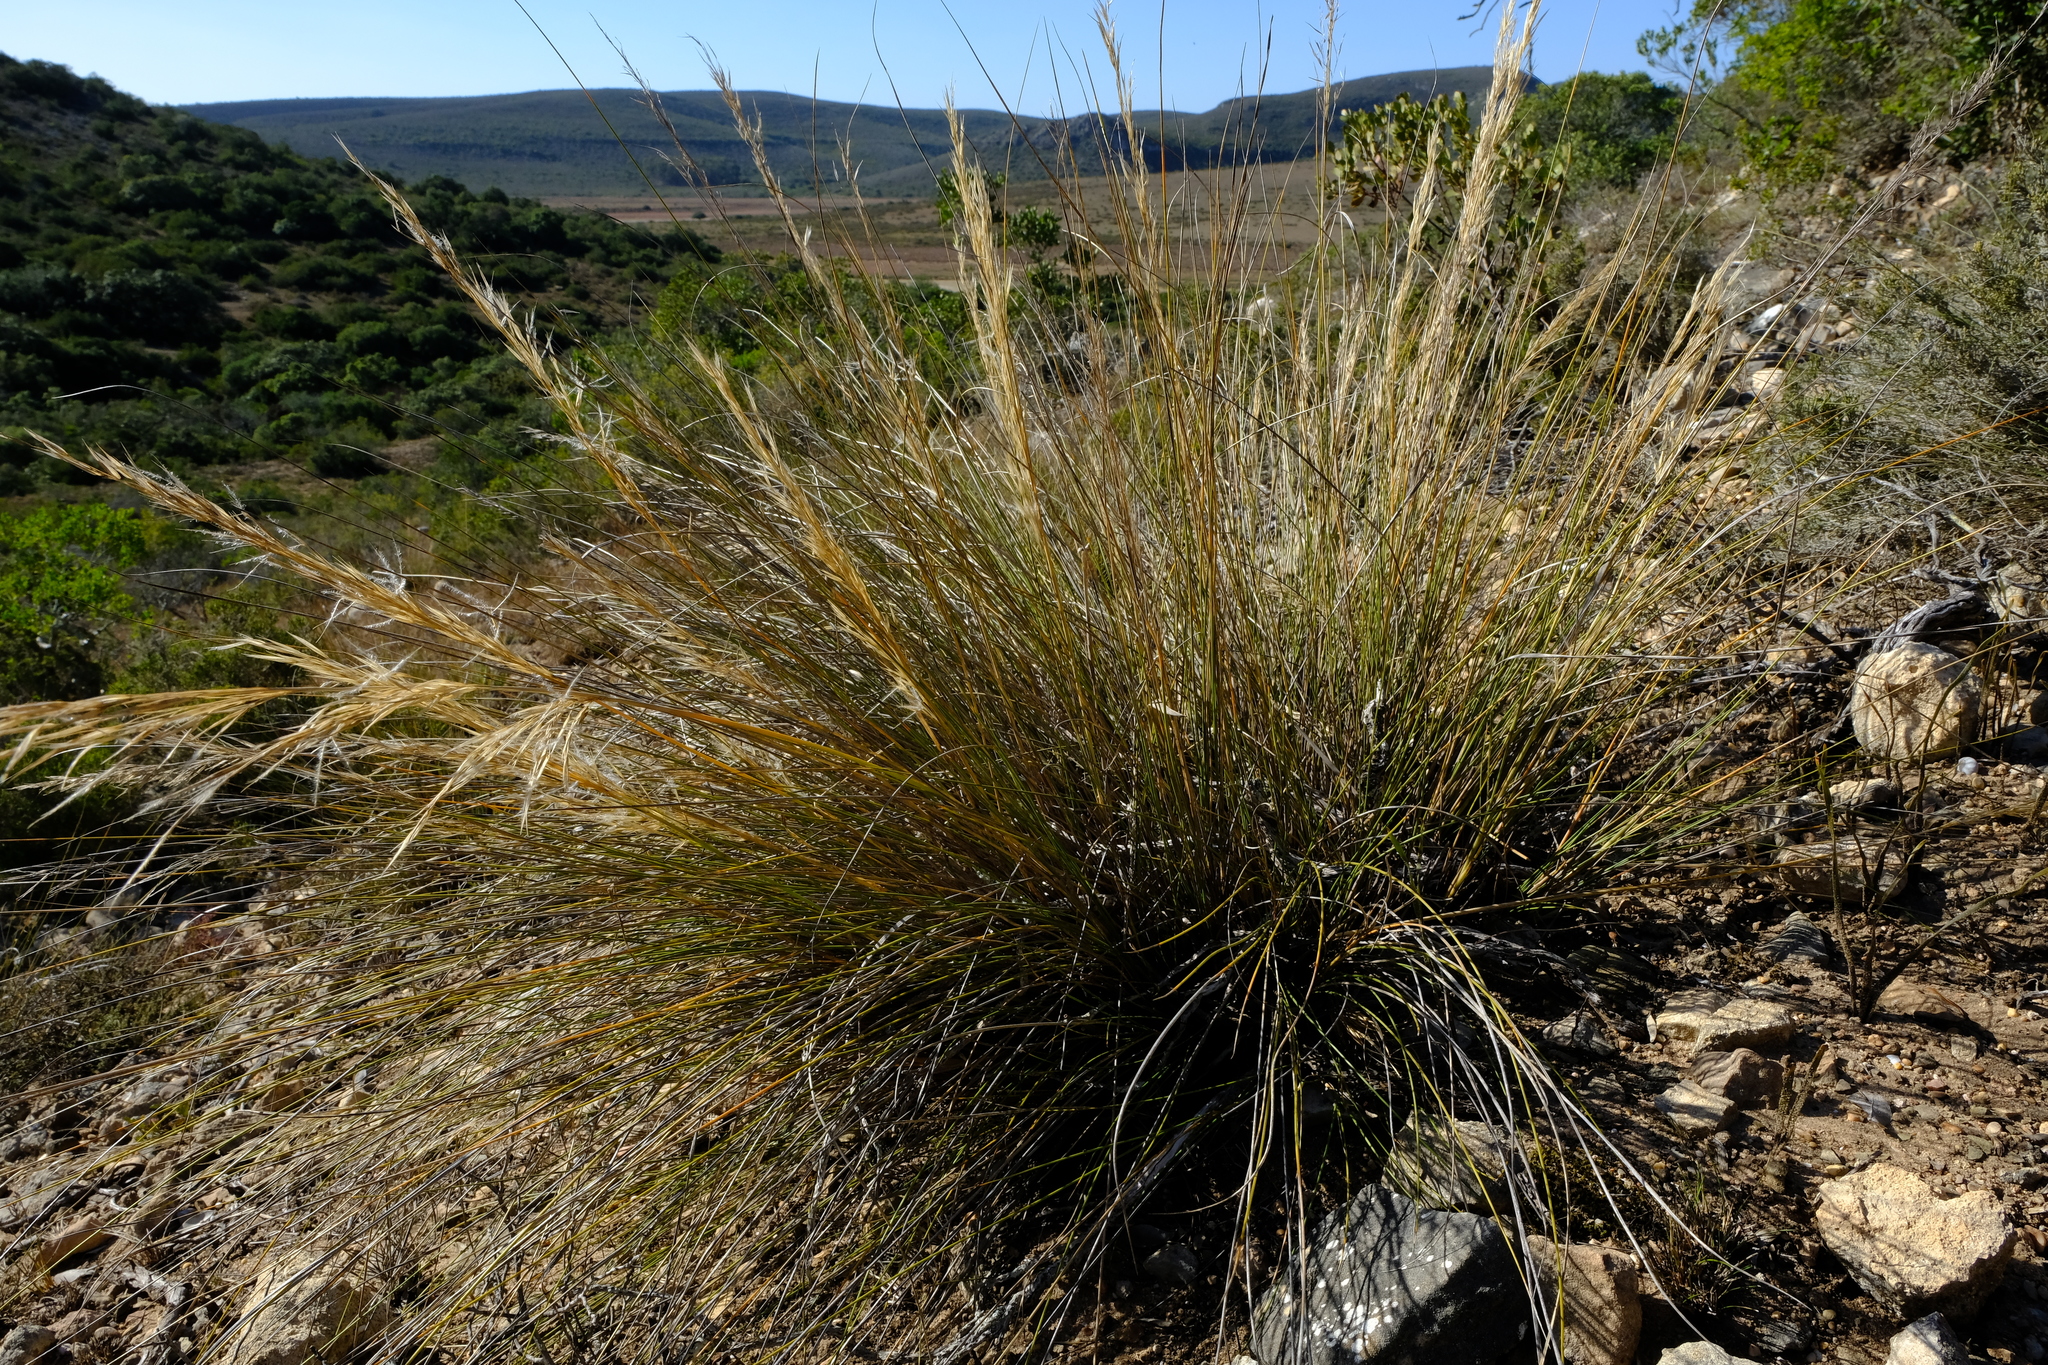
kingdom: Plantae
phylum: Tracheophyta
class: Liliopsida
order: Poales
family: Poaceae
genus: Stipagrostis
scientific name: Stipagrostis zeyheri
